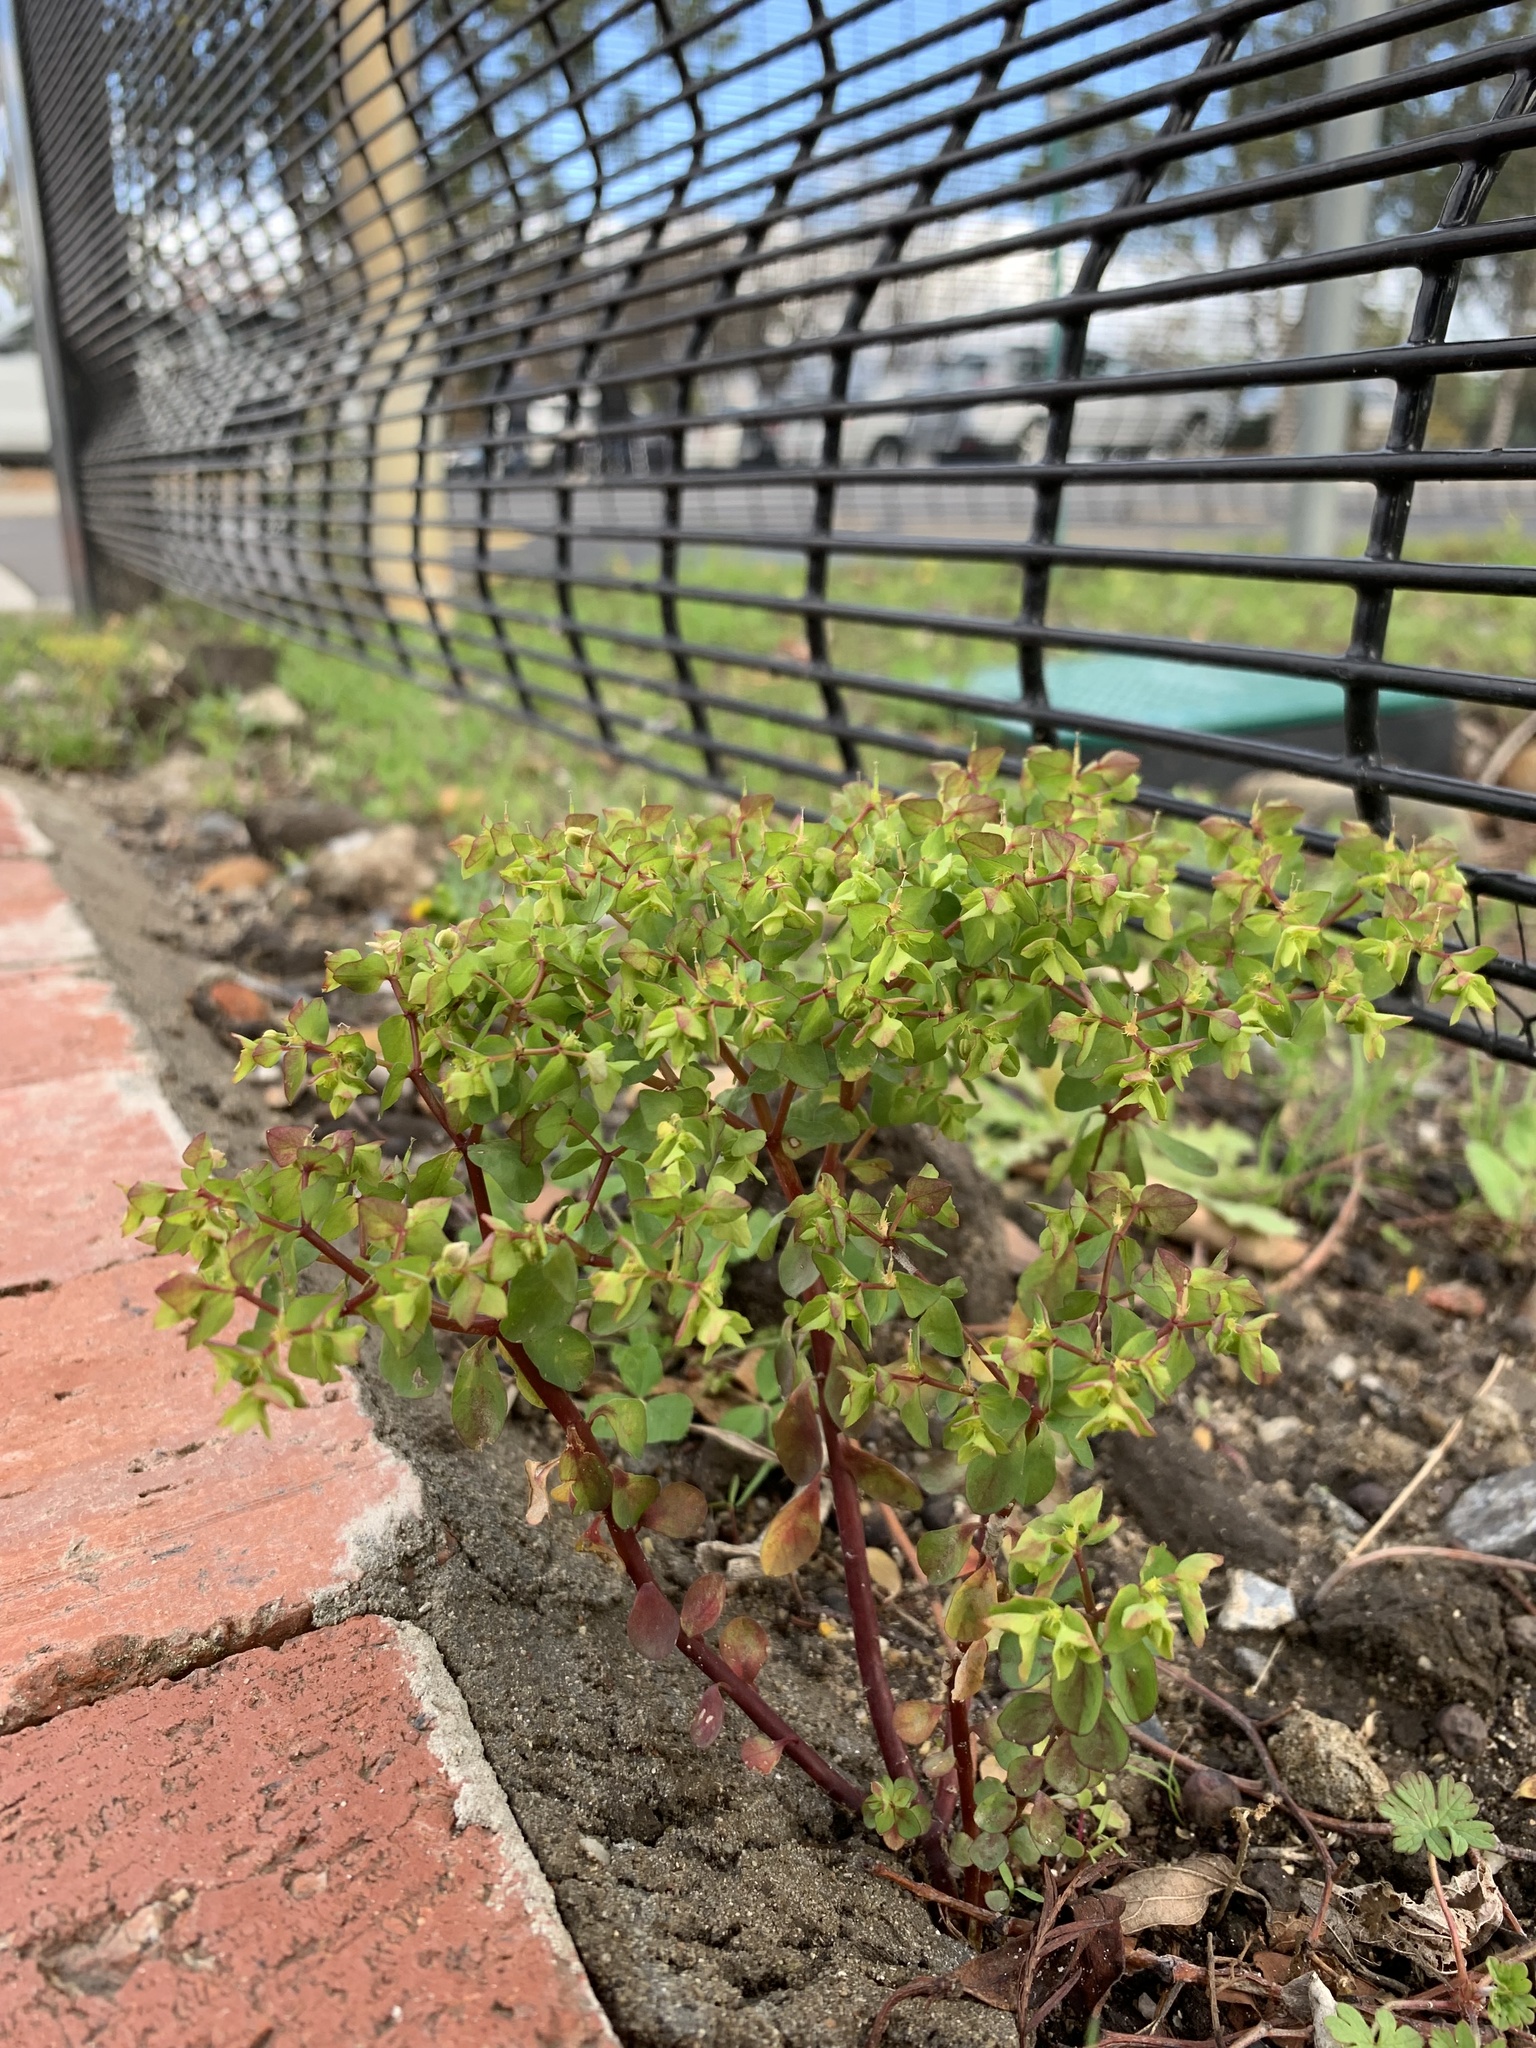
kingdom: Plantae
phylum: Tracheophyta
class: Magnoliopsida
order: Malpighiales
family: Euphorbiaceae
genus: Euphorbia
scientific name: Euphorbia peplus
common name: Petty spurge
